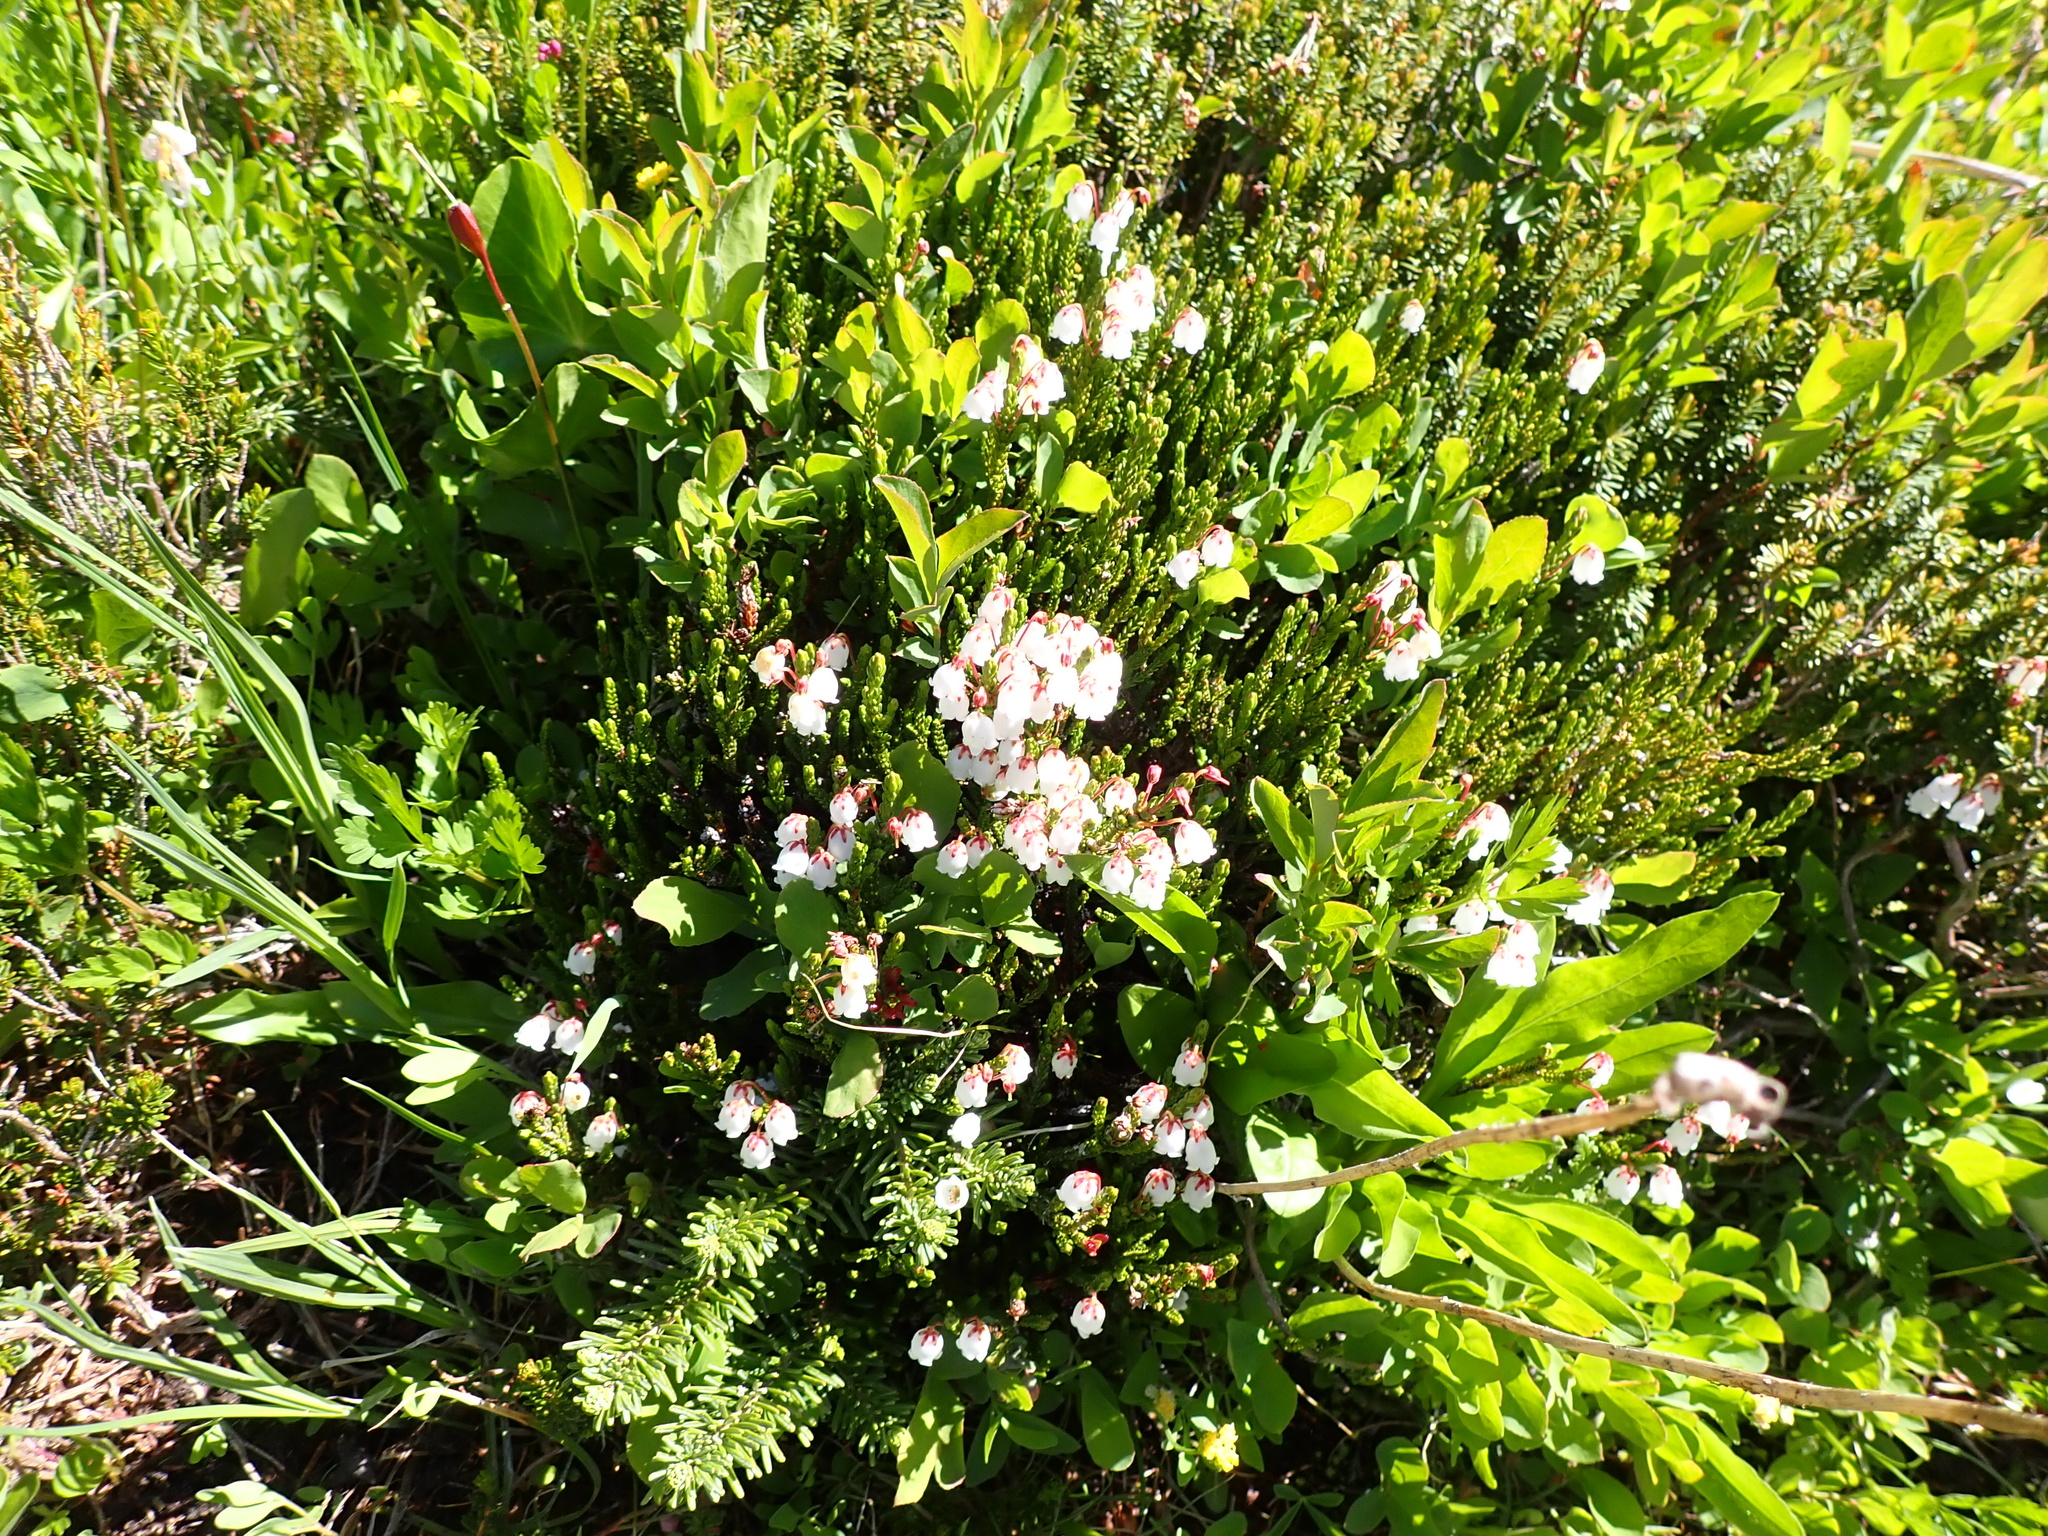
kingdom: Plantae
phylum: Tracheophyta
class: Magnoliopsida
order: Ericales
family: Ericaceae
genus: Cassiope
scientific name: Cassiope mertensiana
